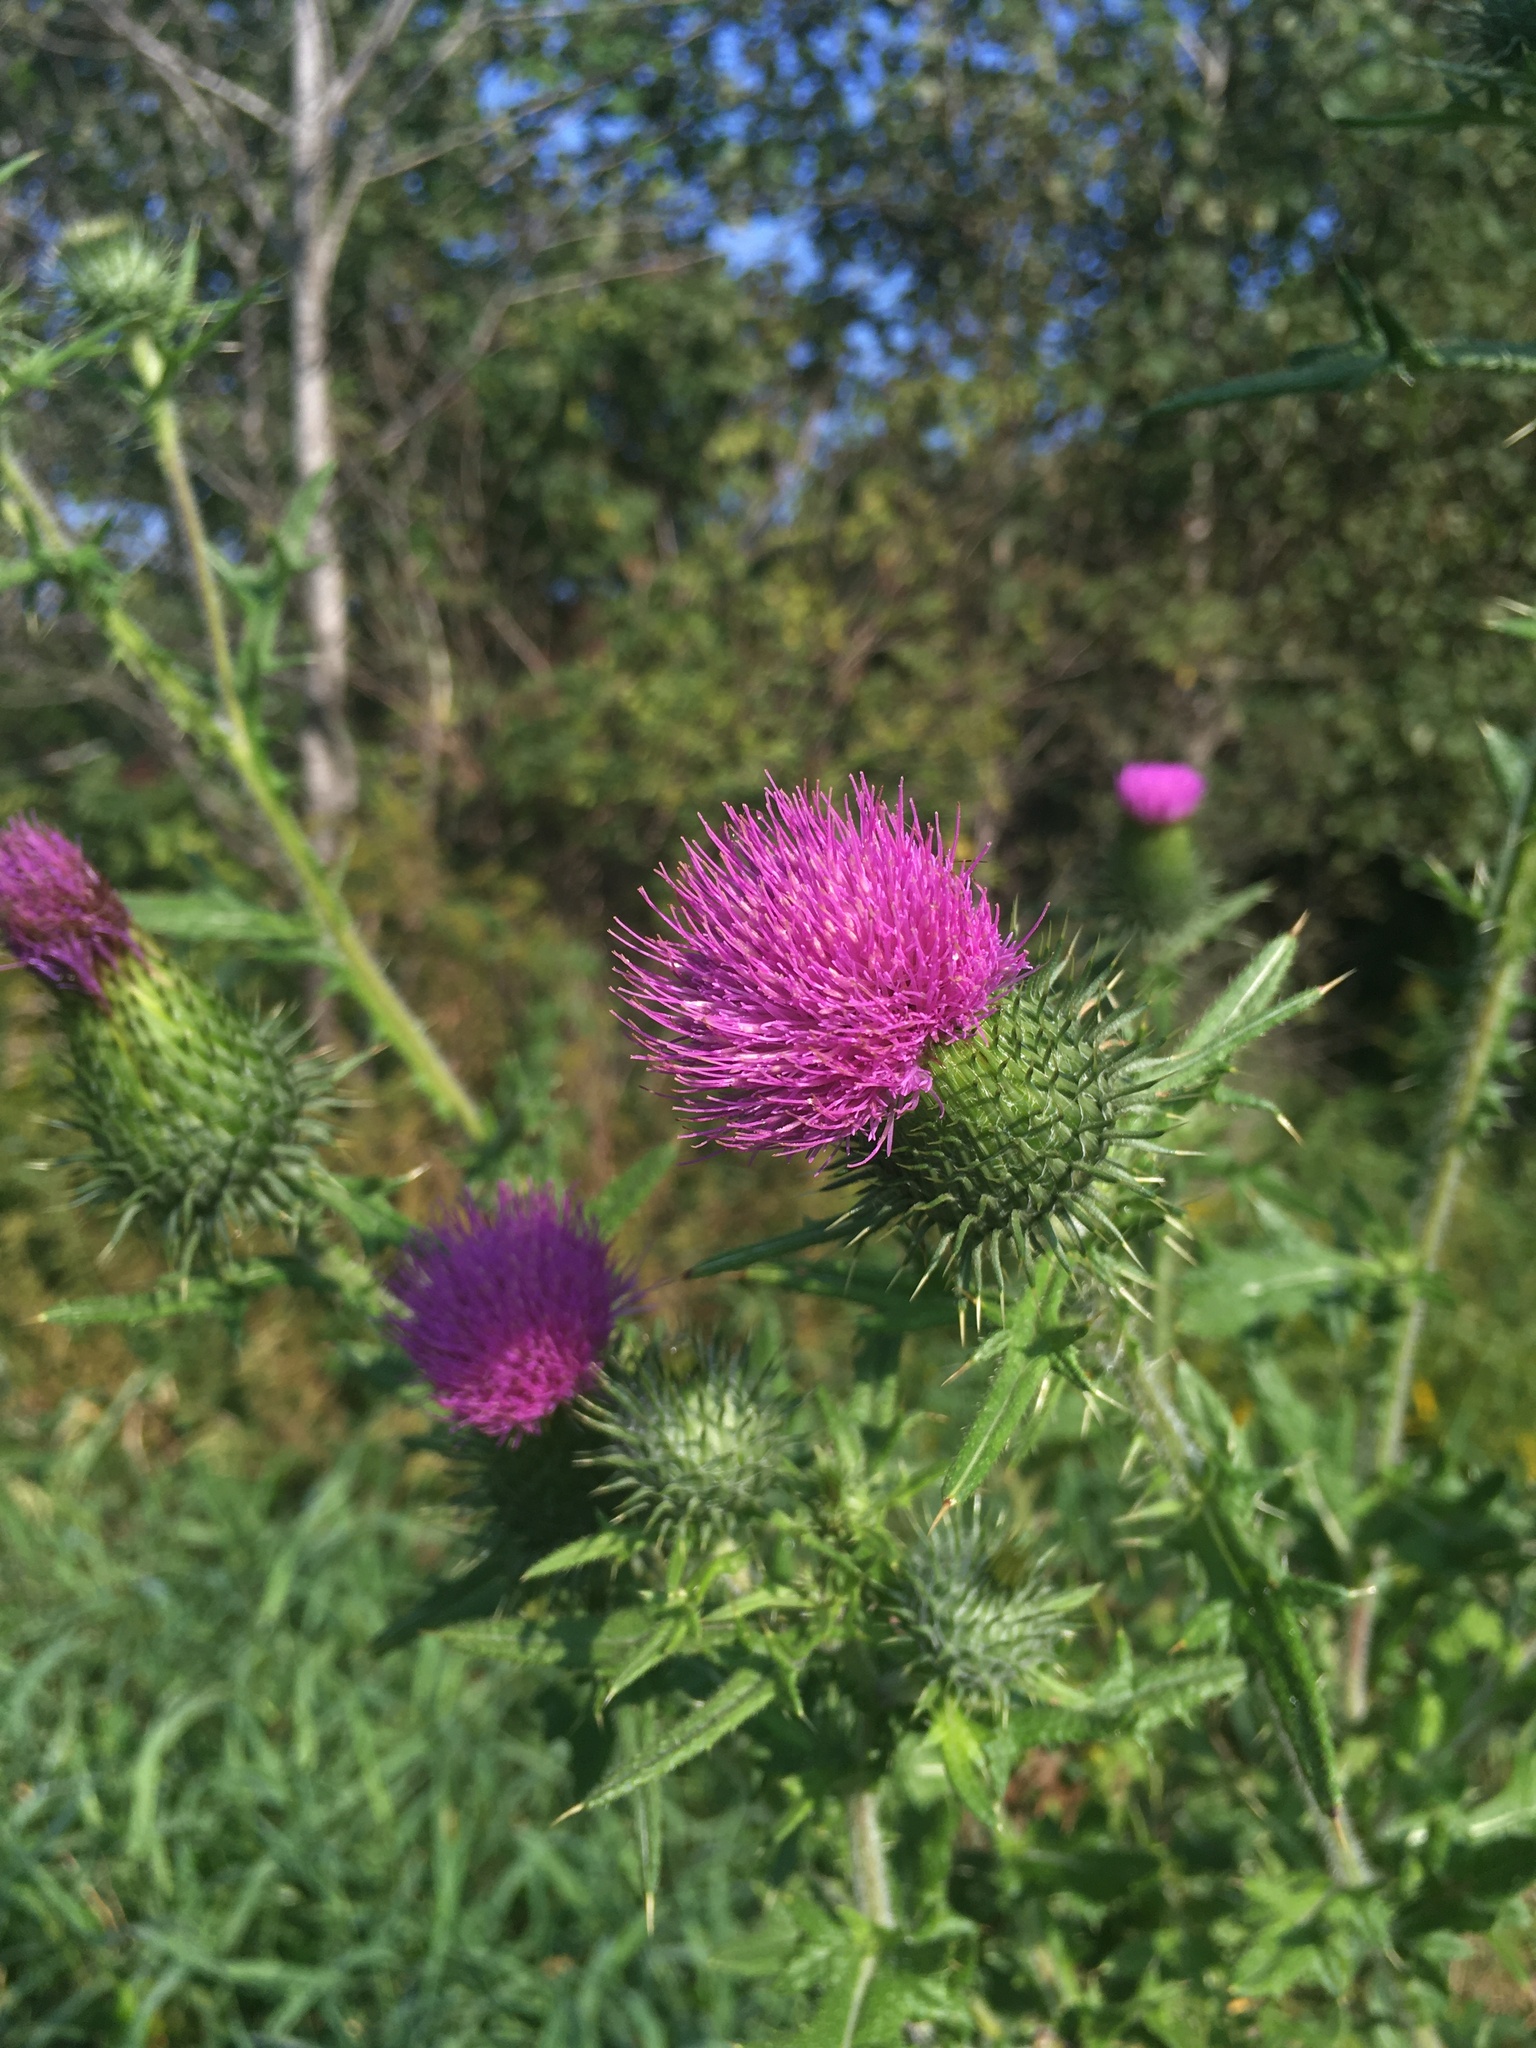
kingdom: Plantae
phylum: Tracheophyta
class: Magnoliopsida
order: Asterales
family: Asteraceae
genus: Cirsium
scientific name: Cirsium vulgare
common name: Bull thistle
